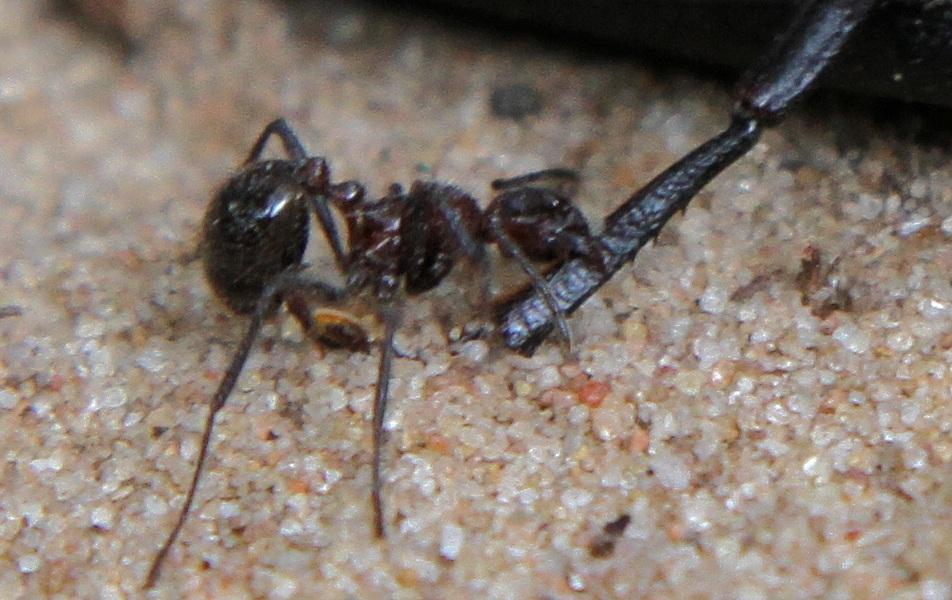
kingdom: Animalia
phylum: Arthropoda
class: Insecta
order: Hymenoptera
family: Formicidae
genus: Myrmicaria
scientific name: Myrmicaria natalensis
